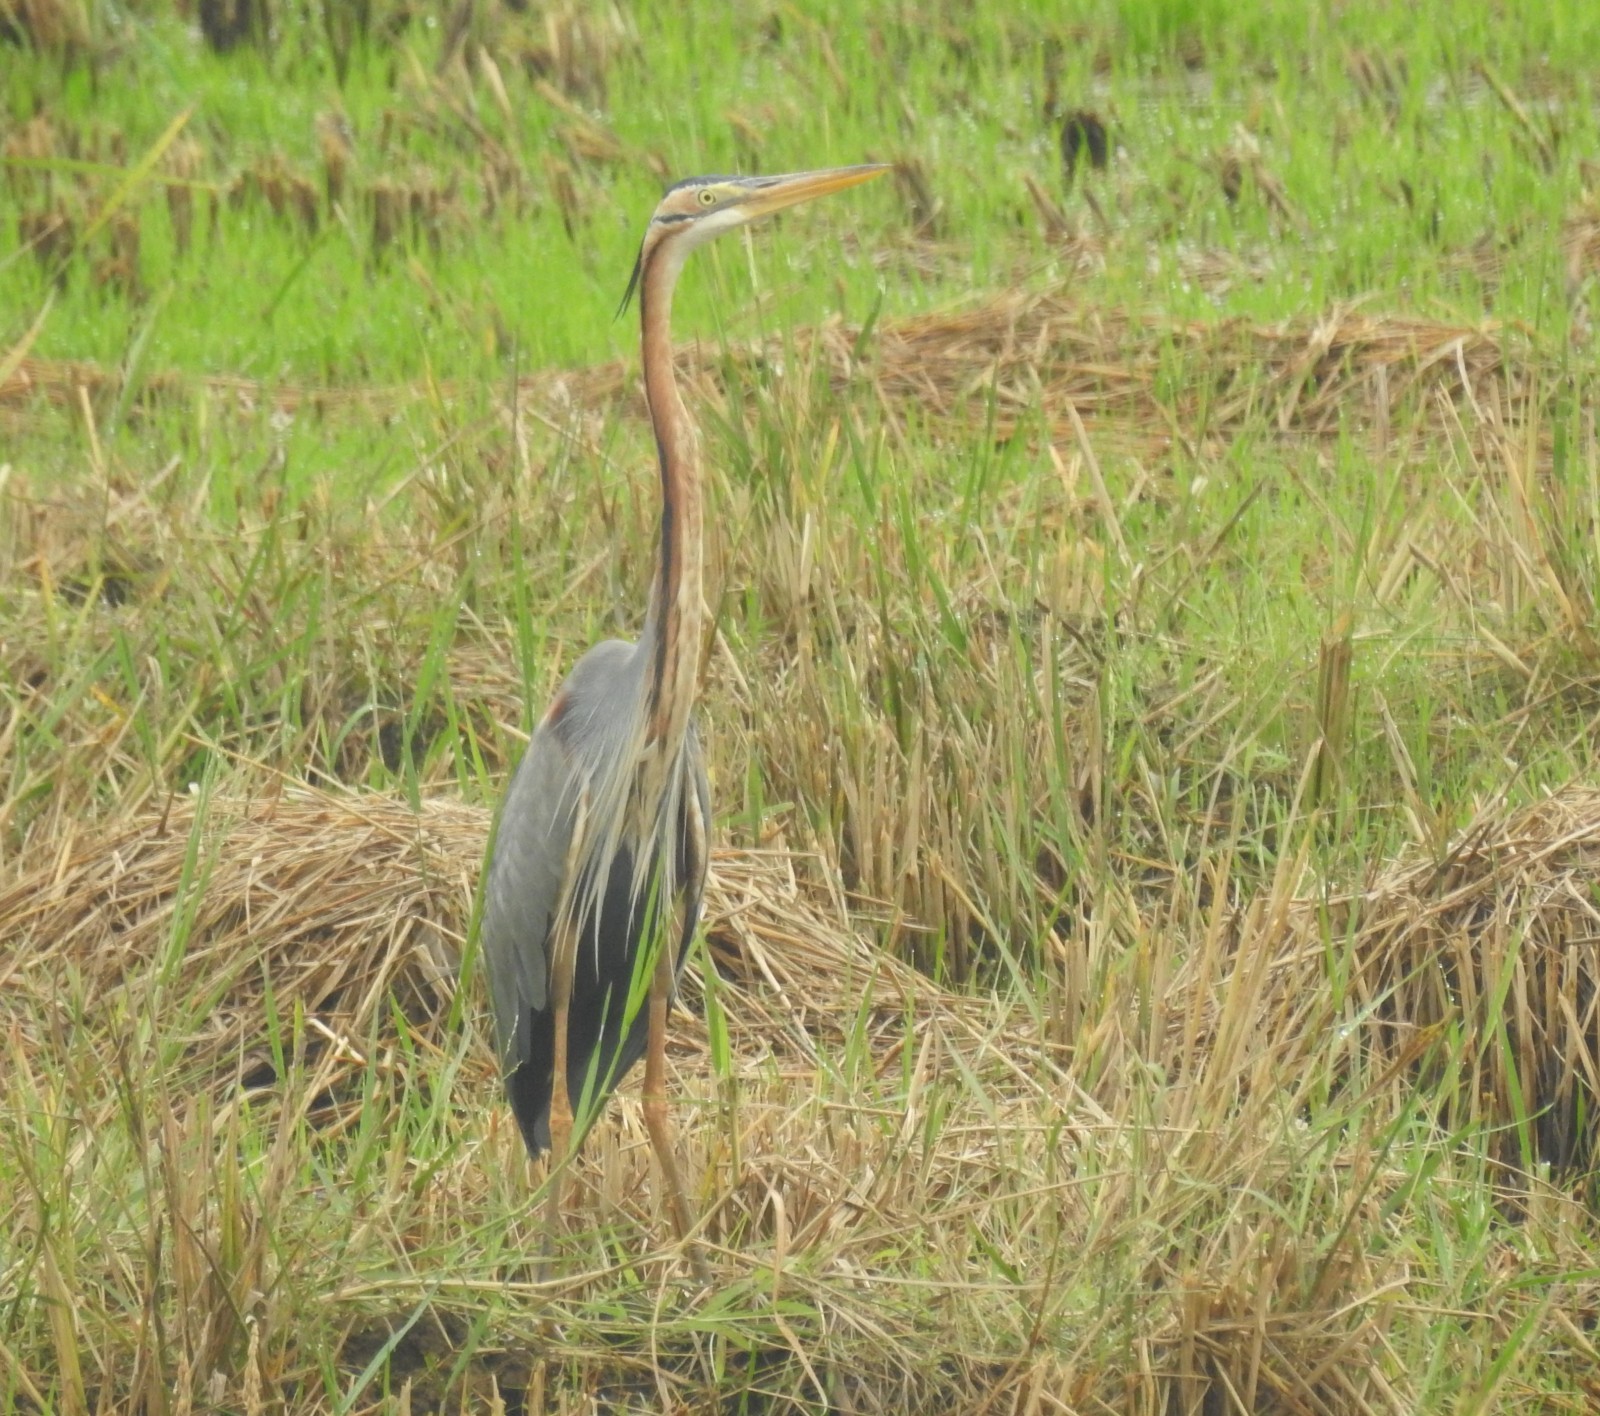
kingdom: Animalia
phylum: Chordata
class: Aves
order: Pelecaniformes
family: Ardeidae
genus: Ardea
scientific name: Ardea purpurea
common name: Purple heron
